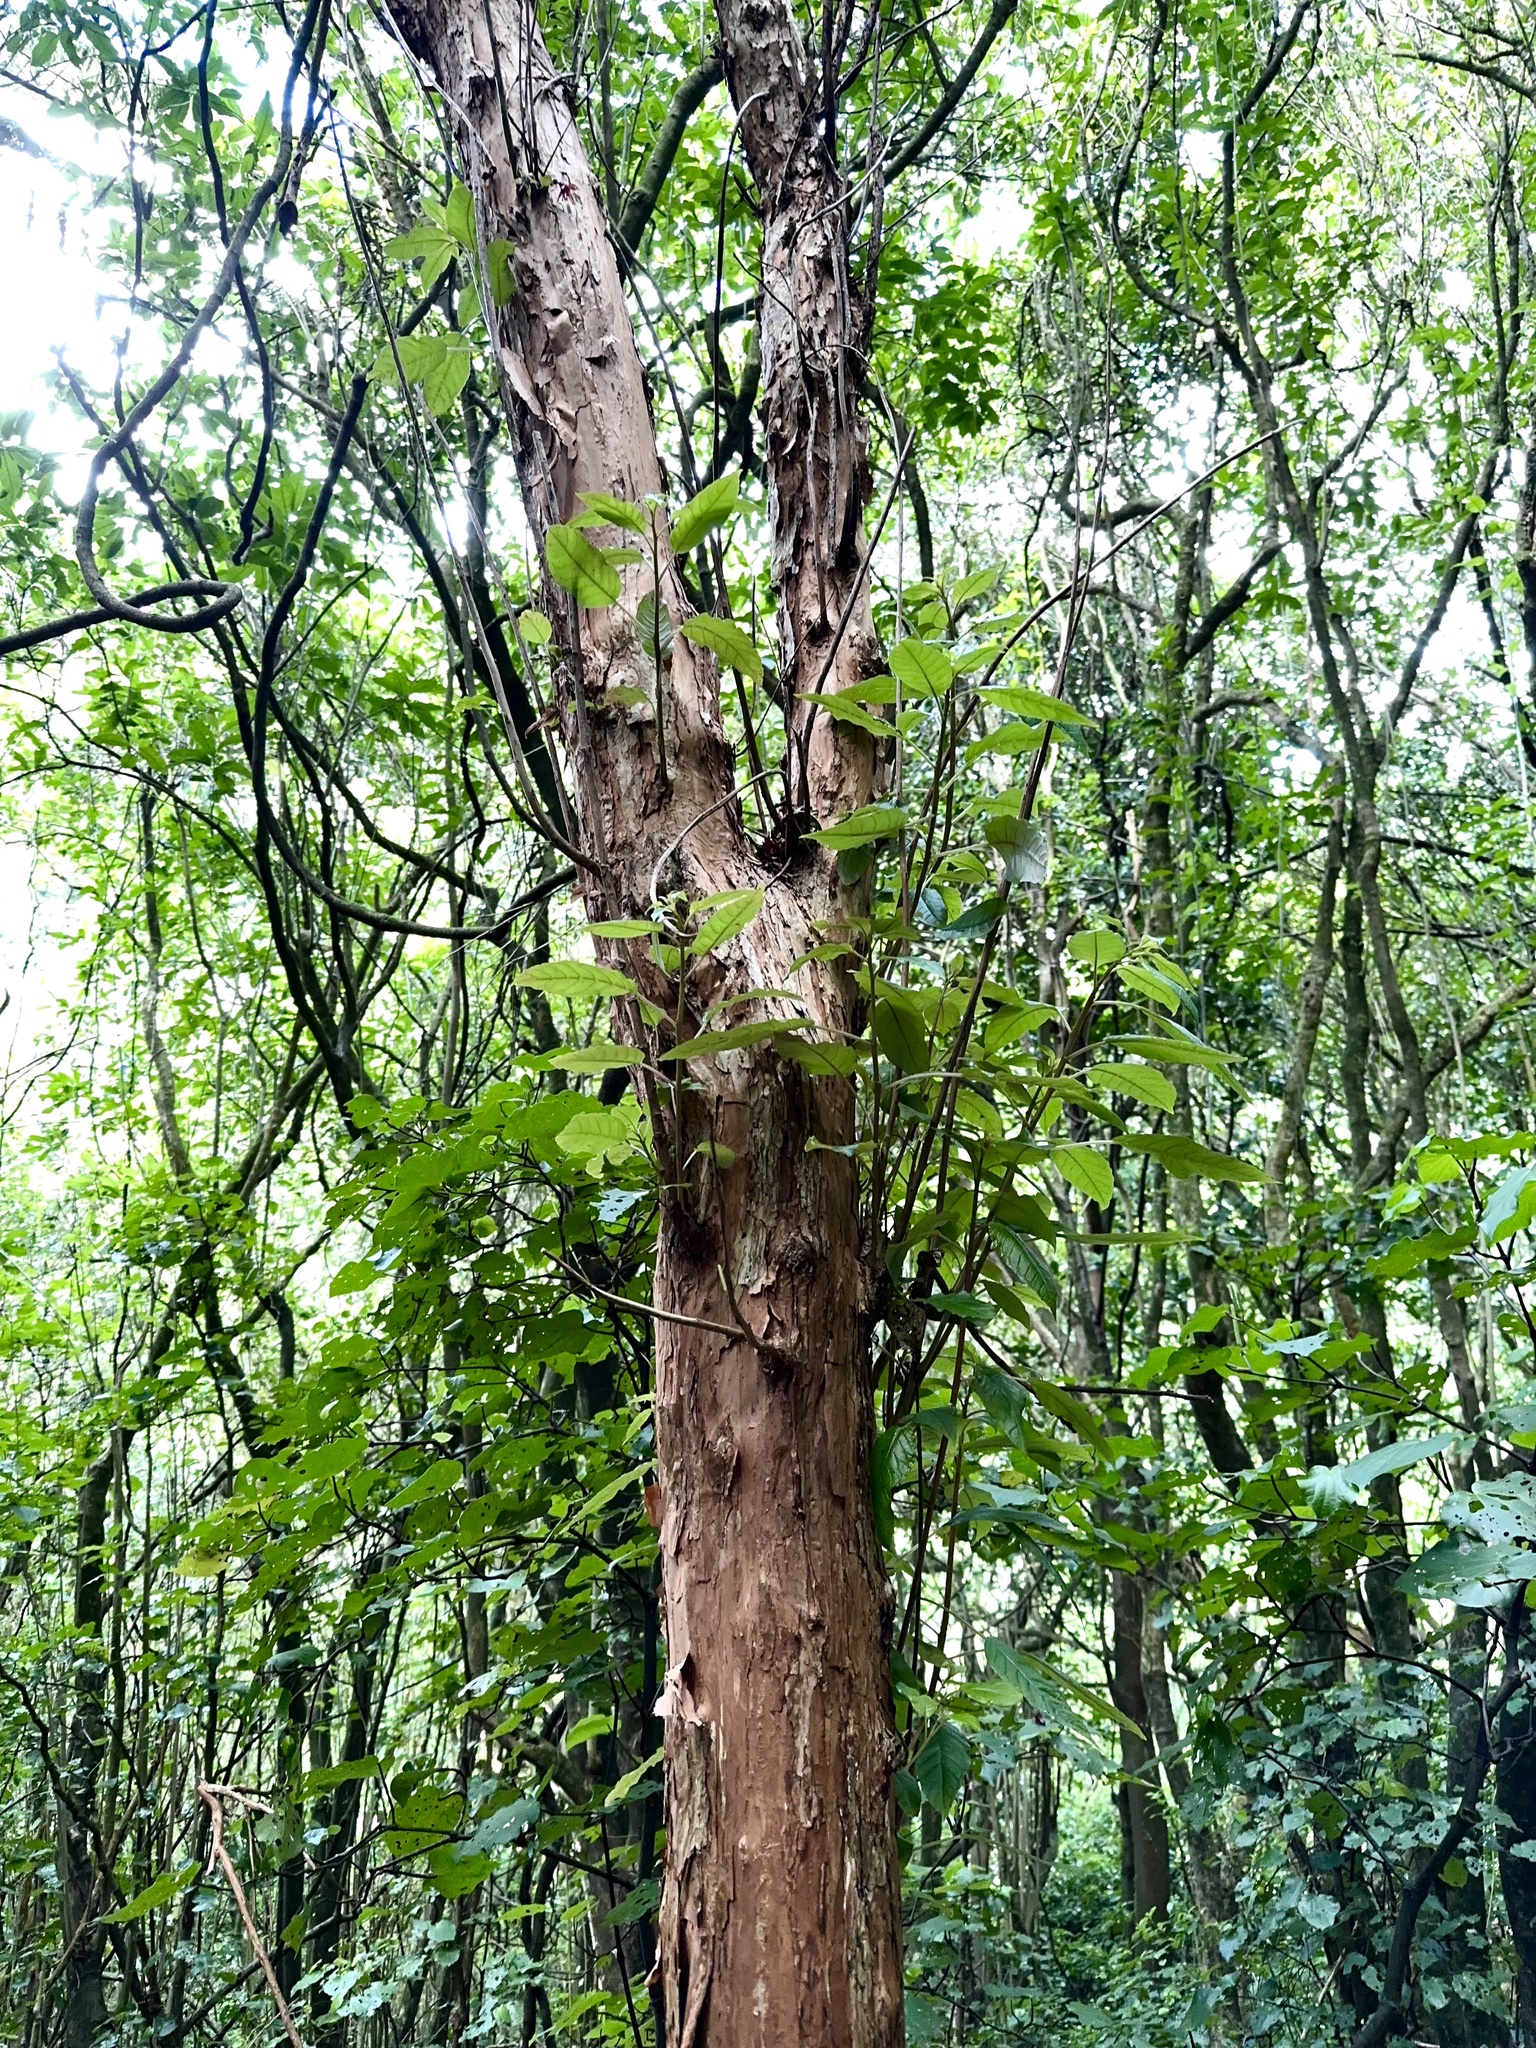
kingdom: Plantae
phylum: Tracheophyta
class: Magnoliopsida
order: Myrtales
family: Onagraceae
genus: Fuchsia
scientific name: Fuchsia excorticata
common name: Tree fuchsia
